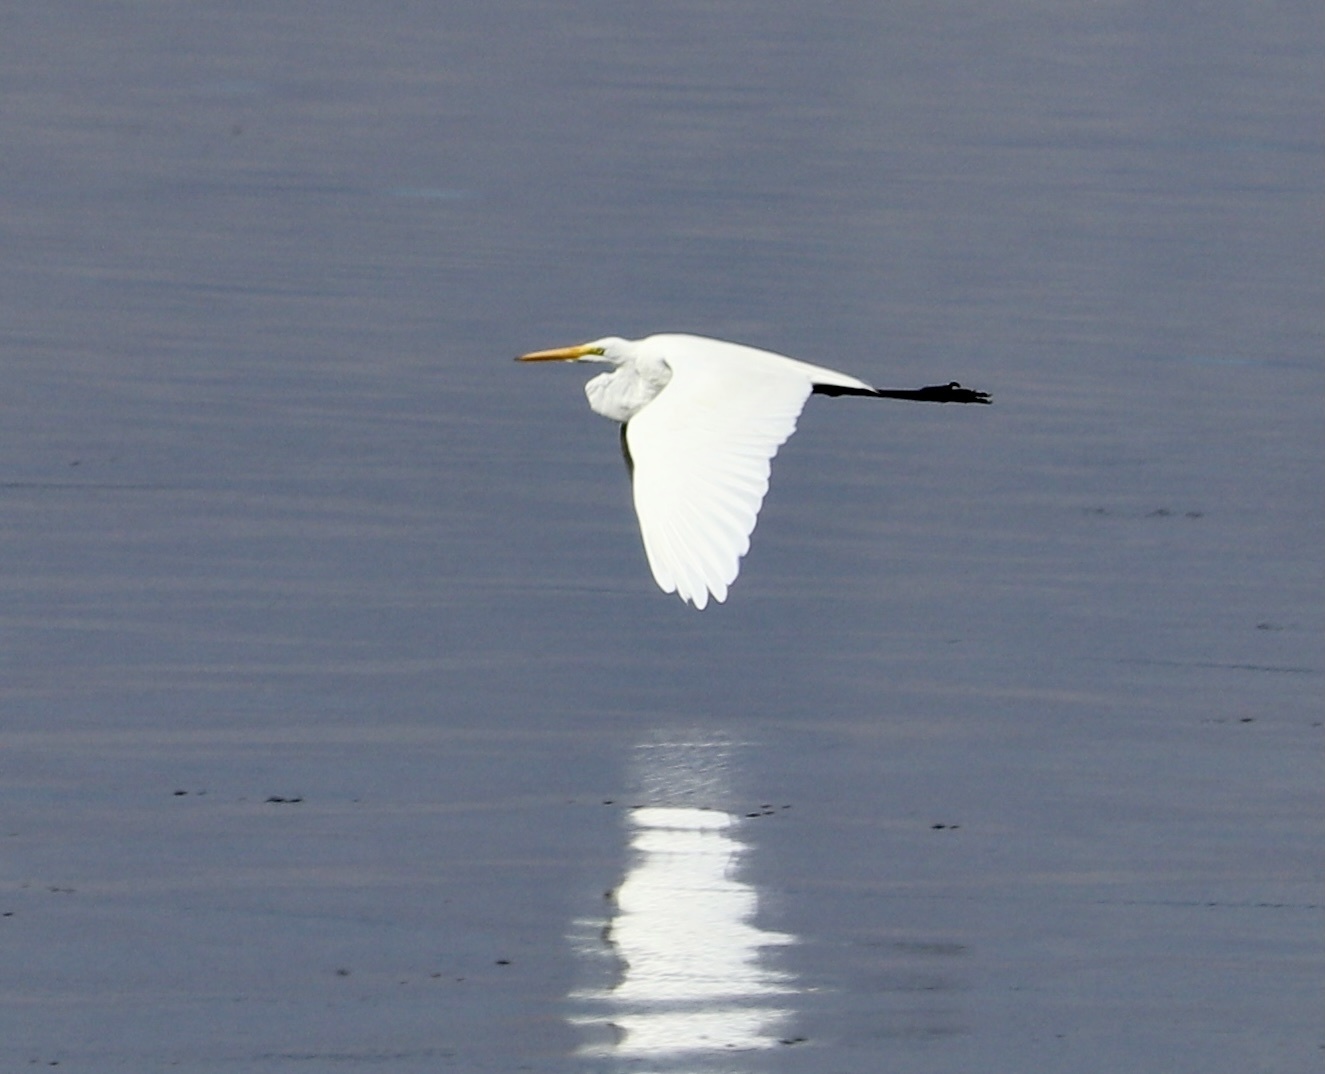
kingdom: Animalia
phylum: Chordata
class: Aves
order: Pelecaniformes
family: Ardeidae
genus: Ardea
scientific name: Ardea alba
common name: Great egret
